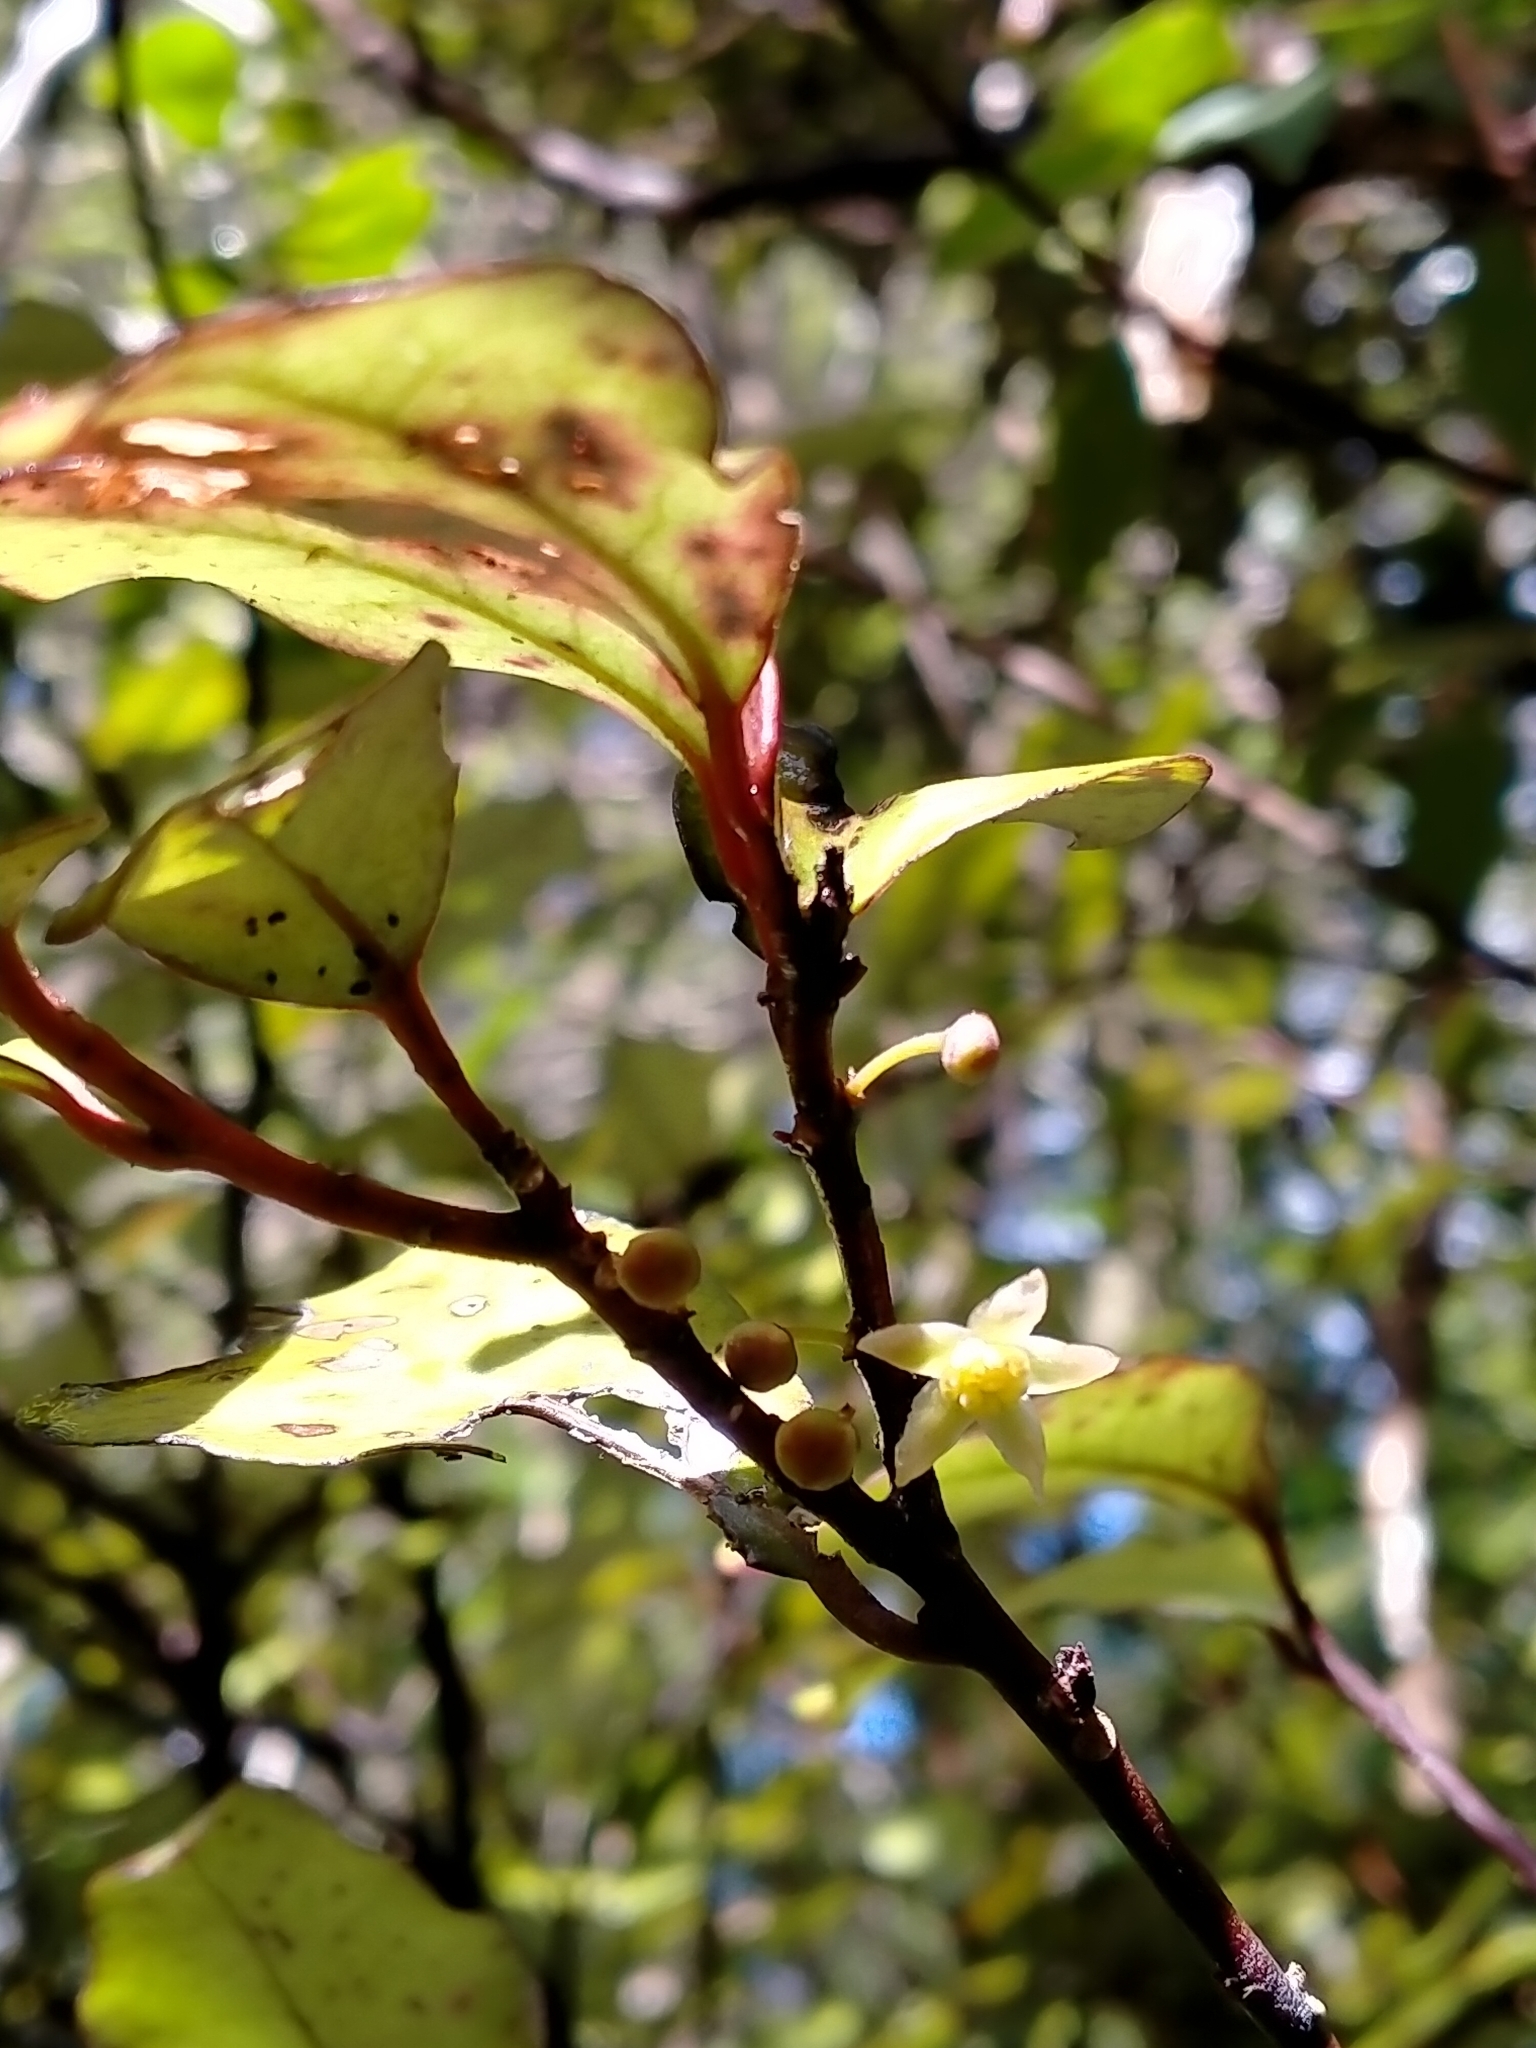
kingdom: Plantae
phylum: Tracheophyta
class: Magnoliopsida
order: Canellales
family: Winteraceae
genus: Pseudowintera
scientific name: Pseudowintera colorata
